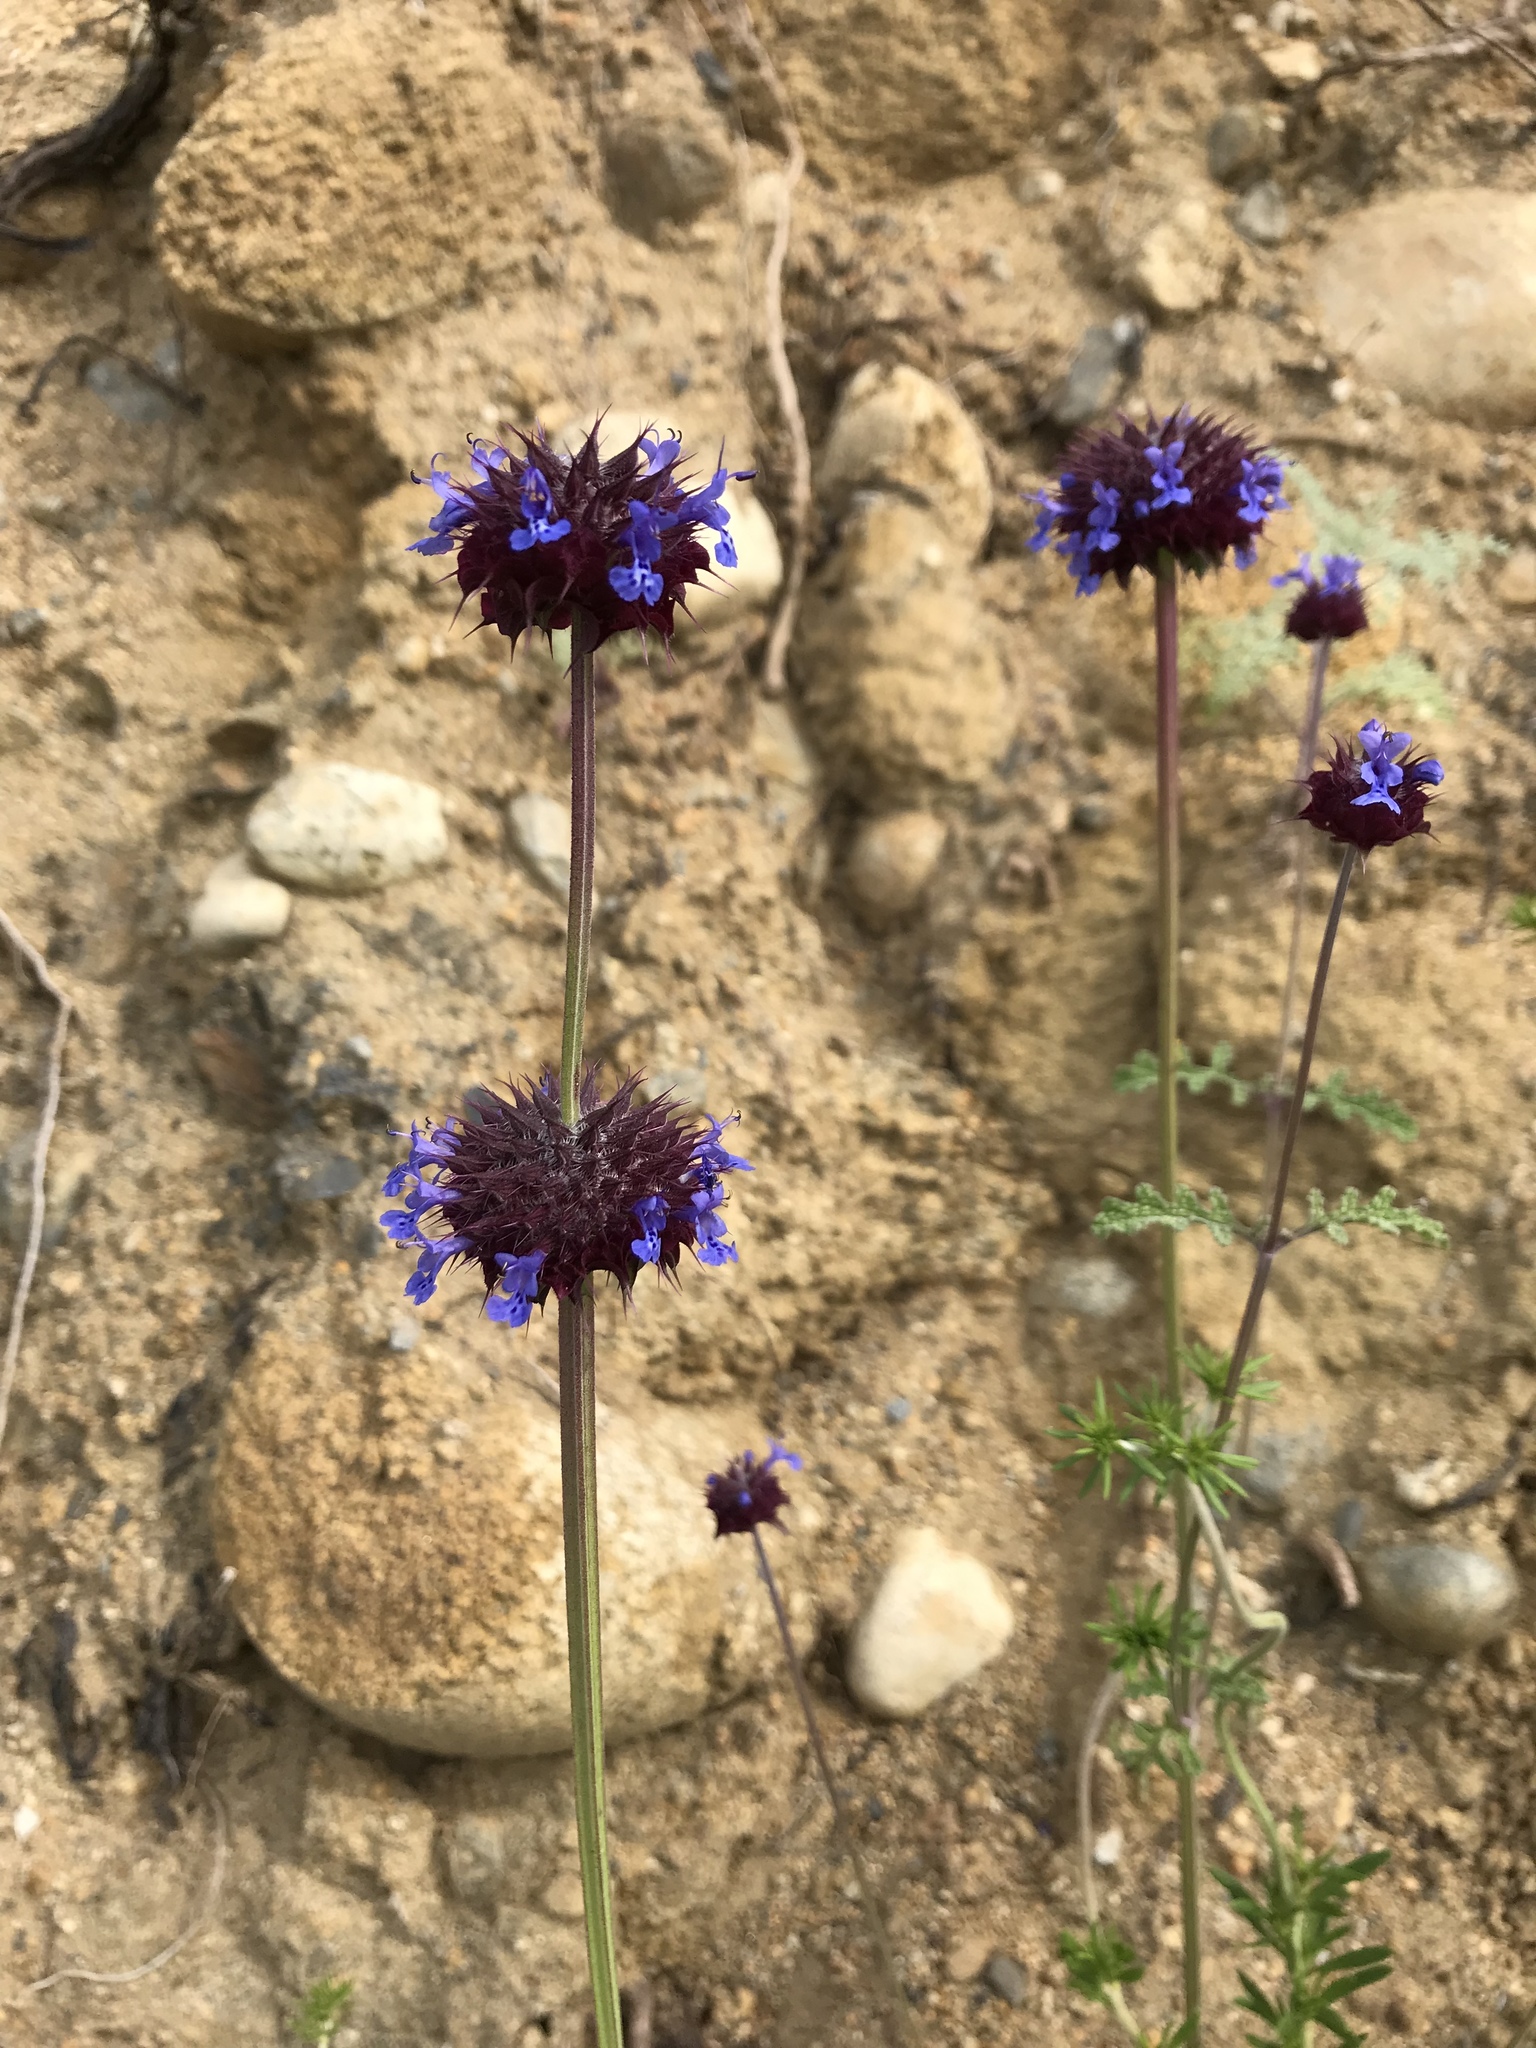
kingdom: Plantae
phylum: Tracheophyta
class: Magnoliopsida
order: Lamiales
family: Lamiaceae
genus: Salvia
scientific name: Salvia columbariae
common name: Chia
